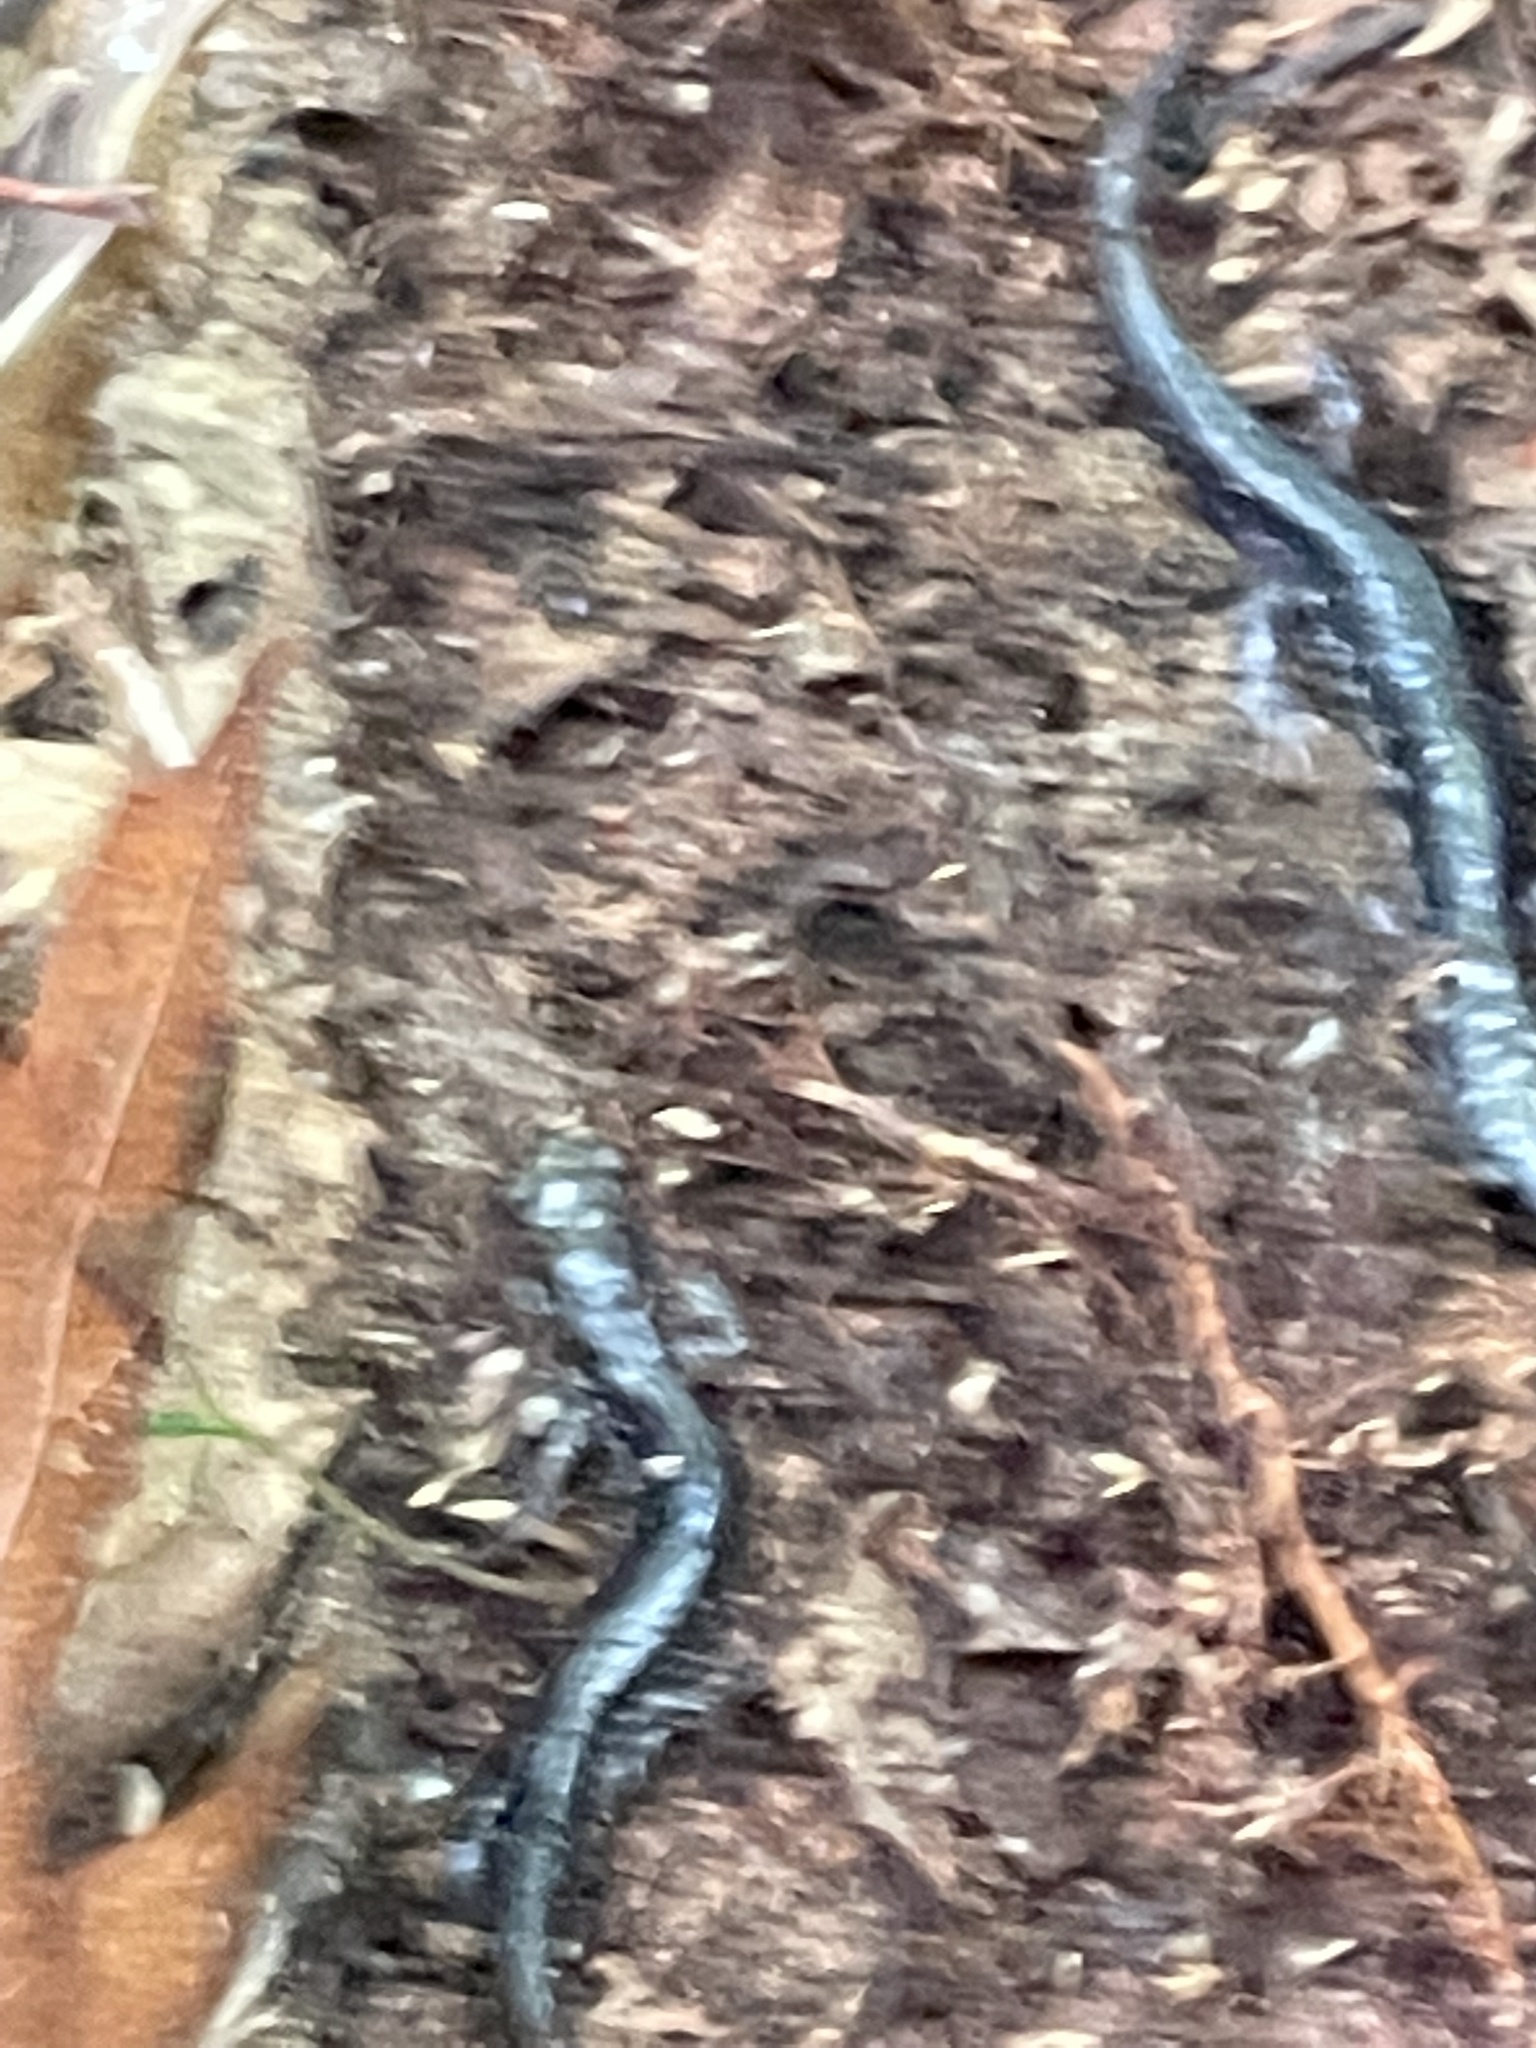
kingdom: Animalia
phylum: Chordata
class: Amphibia
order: Caudata
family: Plethodontidae
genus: Plethodon
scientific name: Plethodon chattahoochee
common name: Chattahoochee slimy salamander
